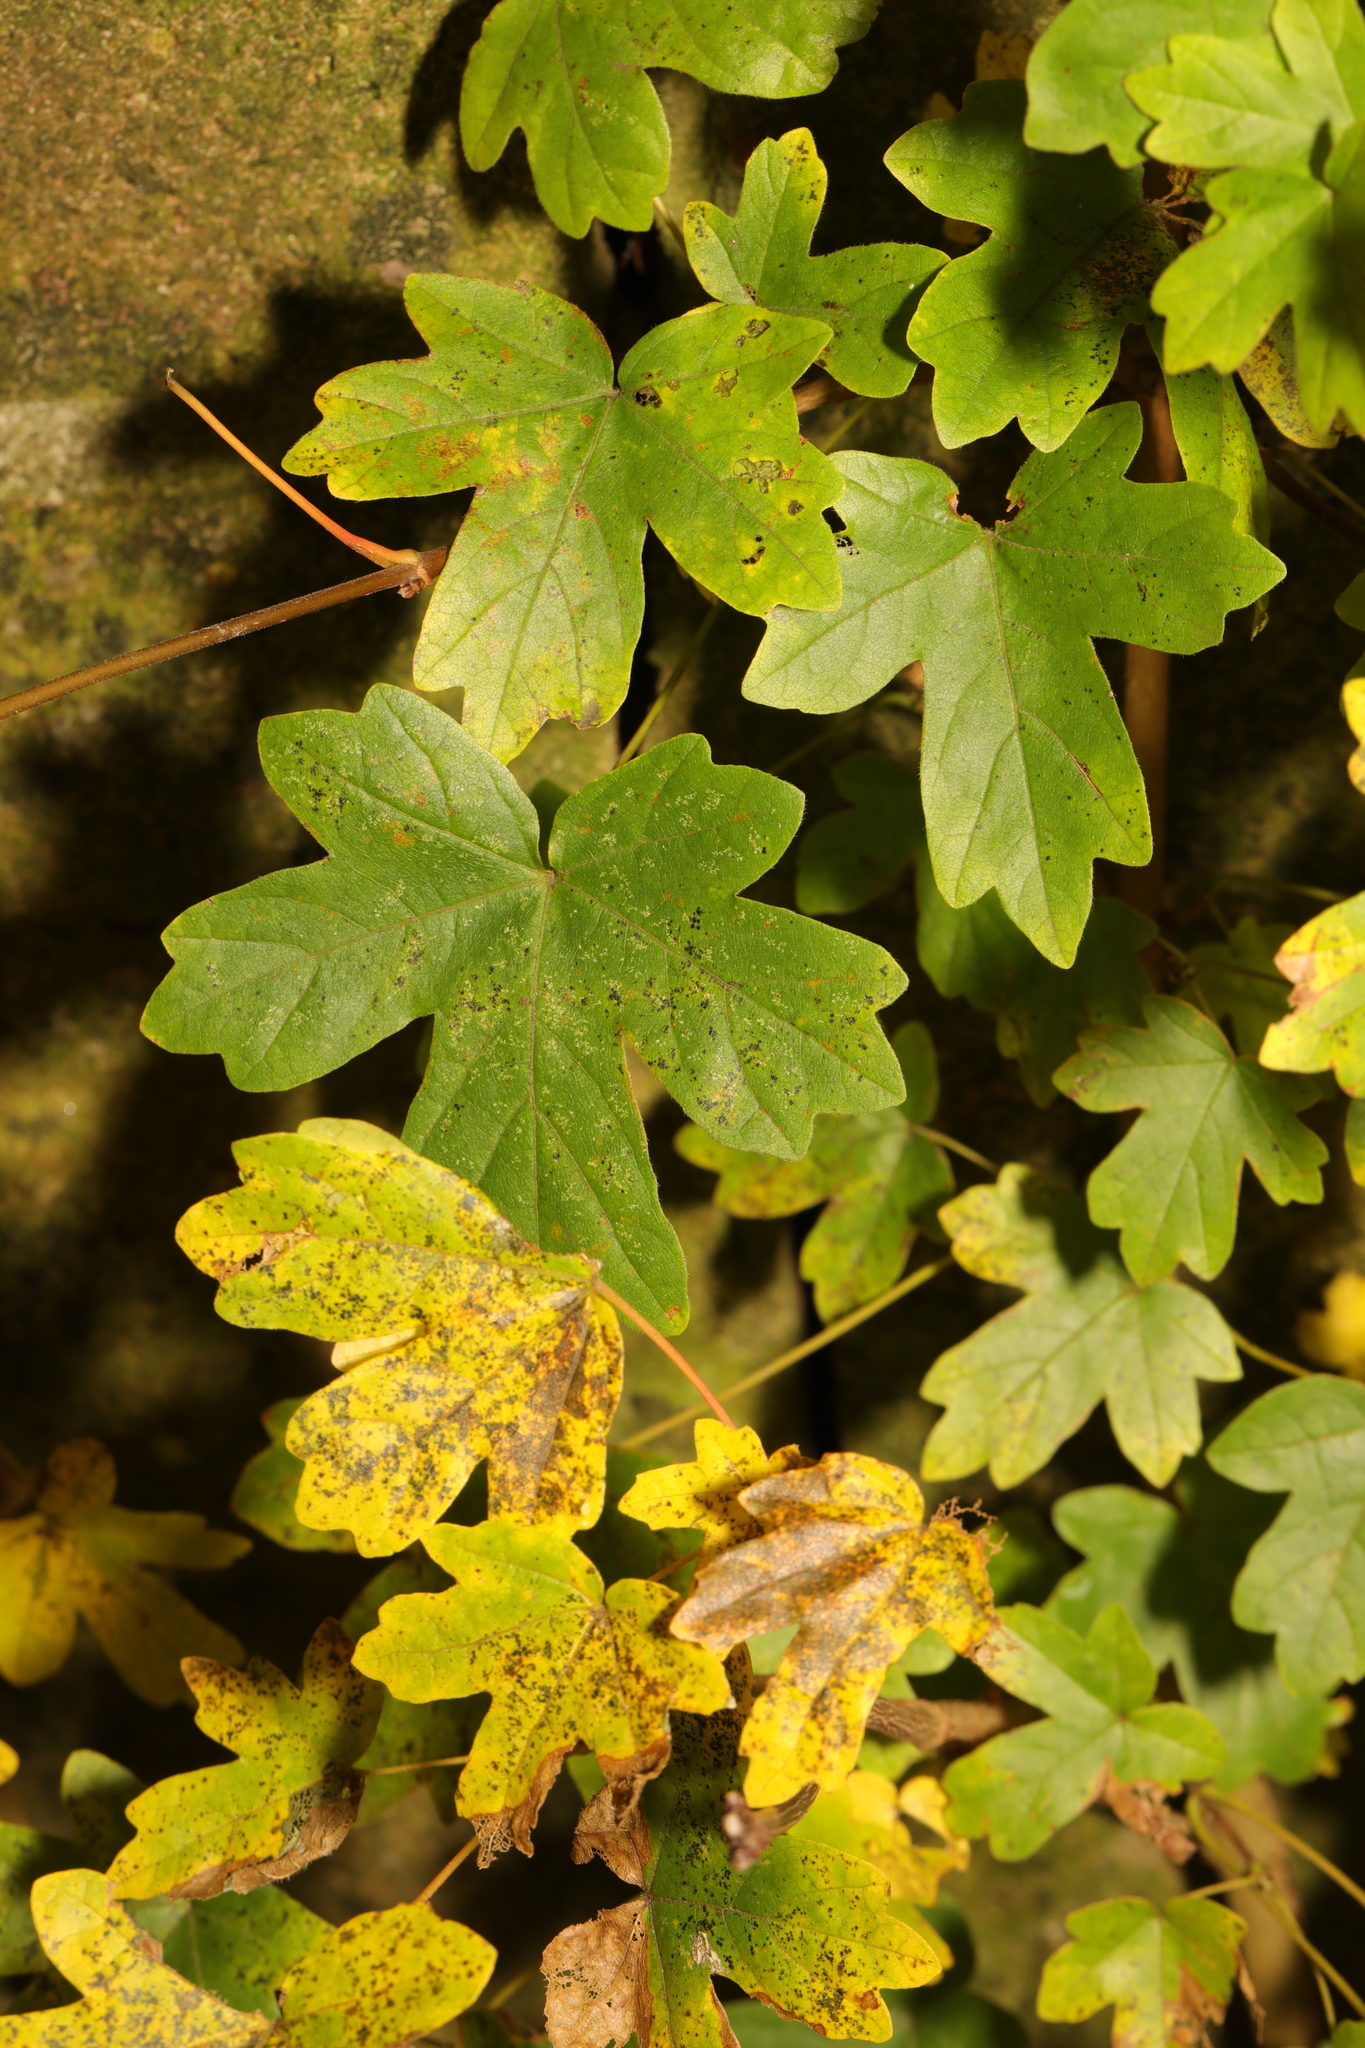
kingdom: Plantae
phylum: Tracheophyta
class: Magnoliopsida
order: Sapindales
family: Sapindaceae
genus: Acer
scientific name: Acer campestre
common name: Field maple
